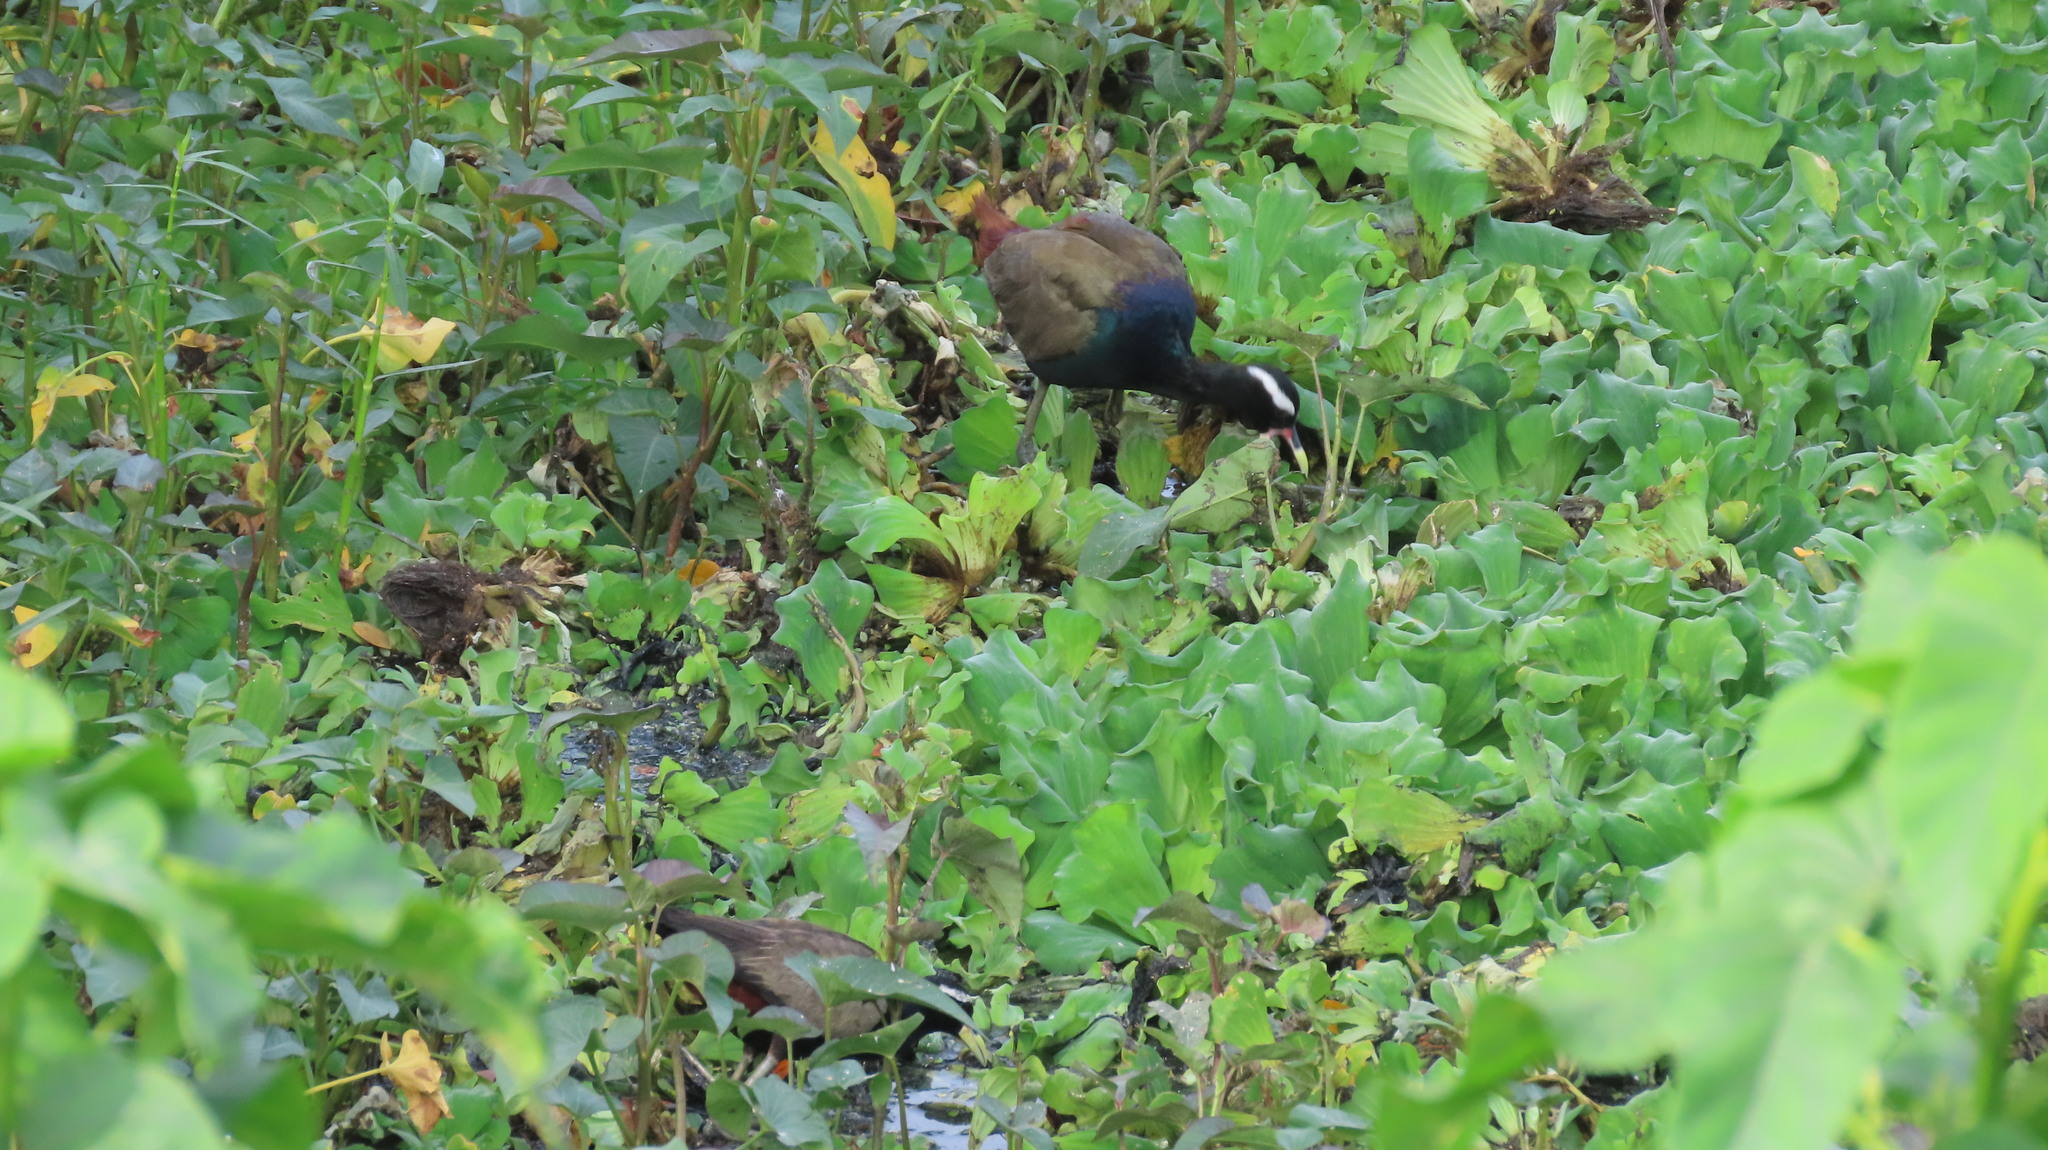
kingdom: Animalia
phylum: Chordata
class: Aves
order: Charadriiformes
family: Jacanidae
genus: Metopidius
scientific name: Metopidius indicus
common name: Bronze-winged jacana
